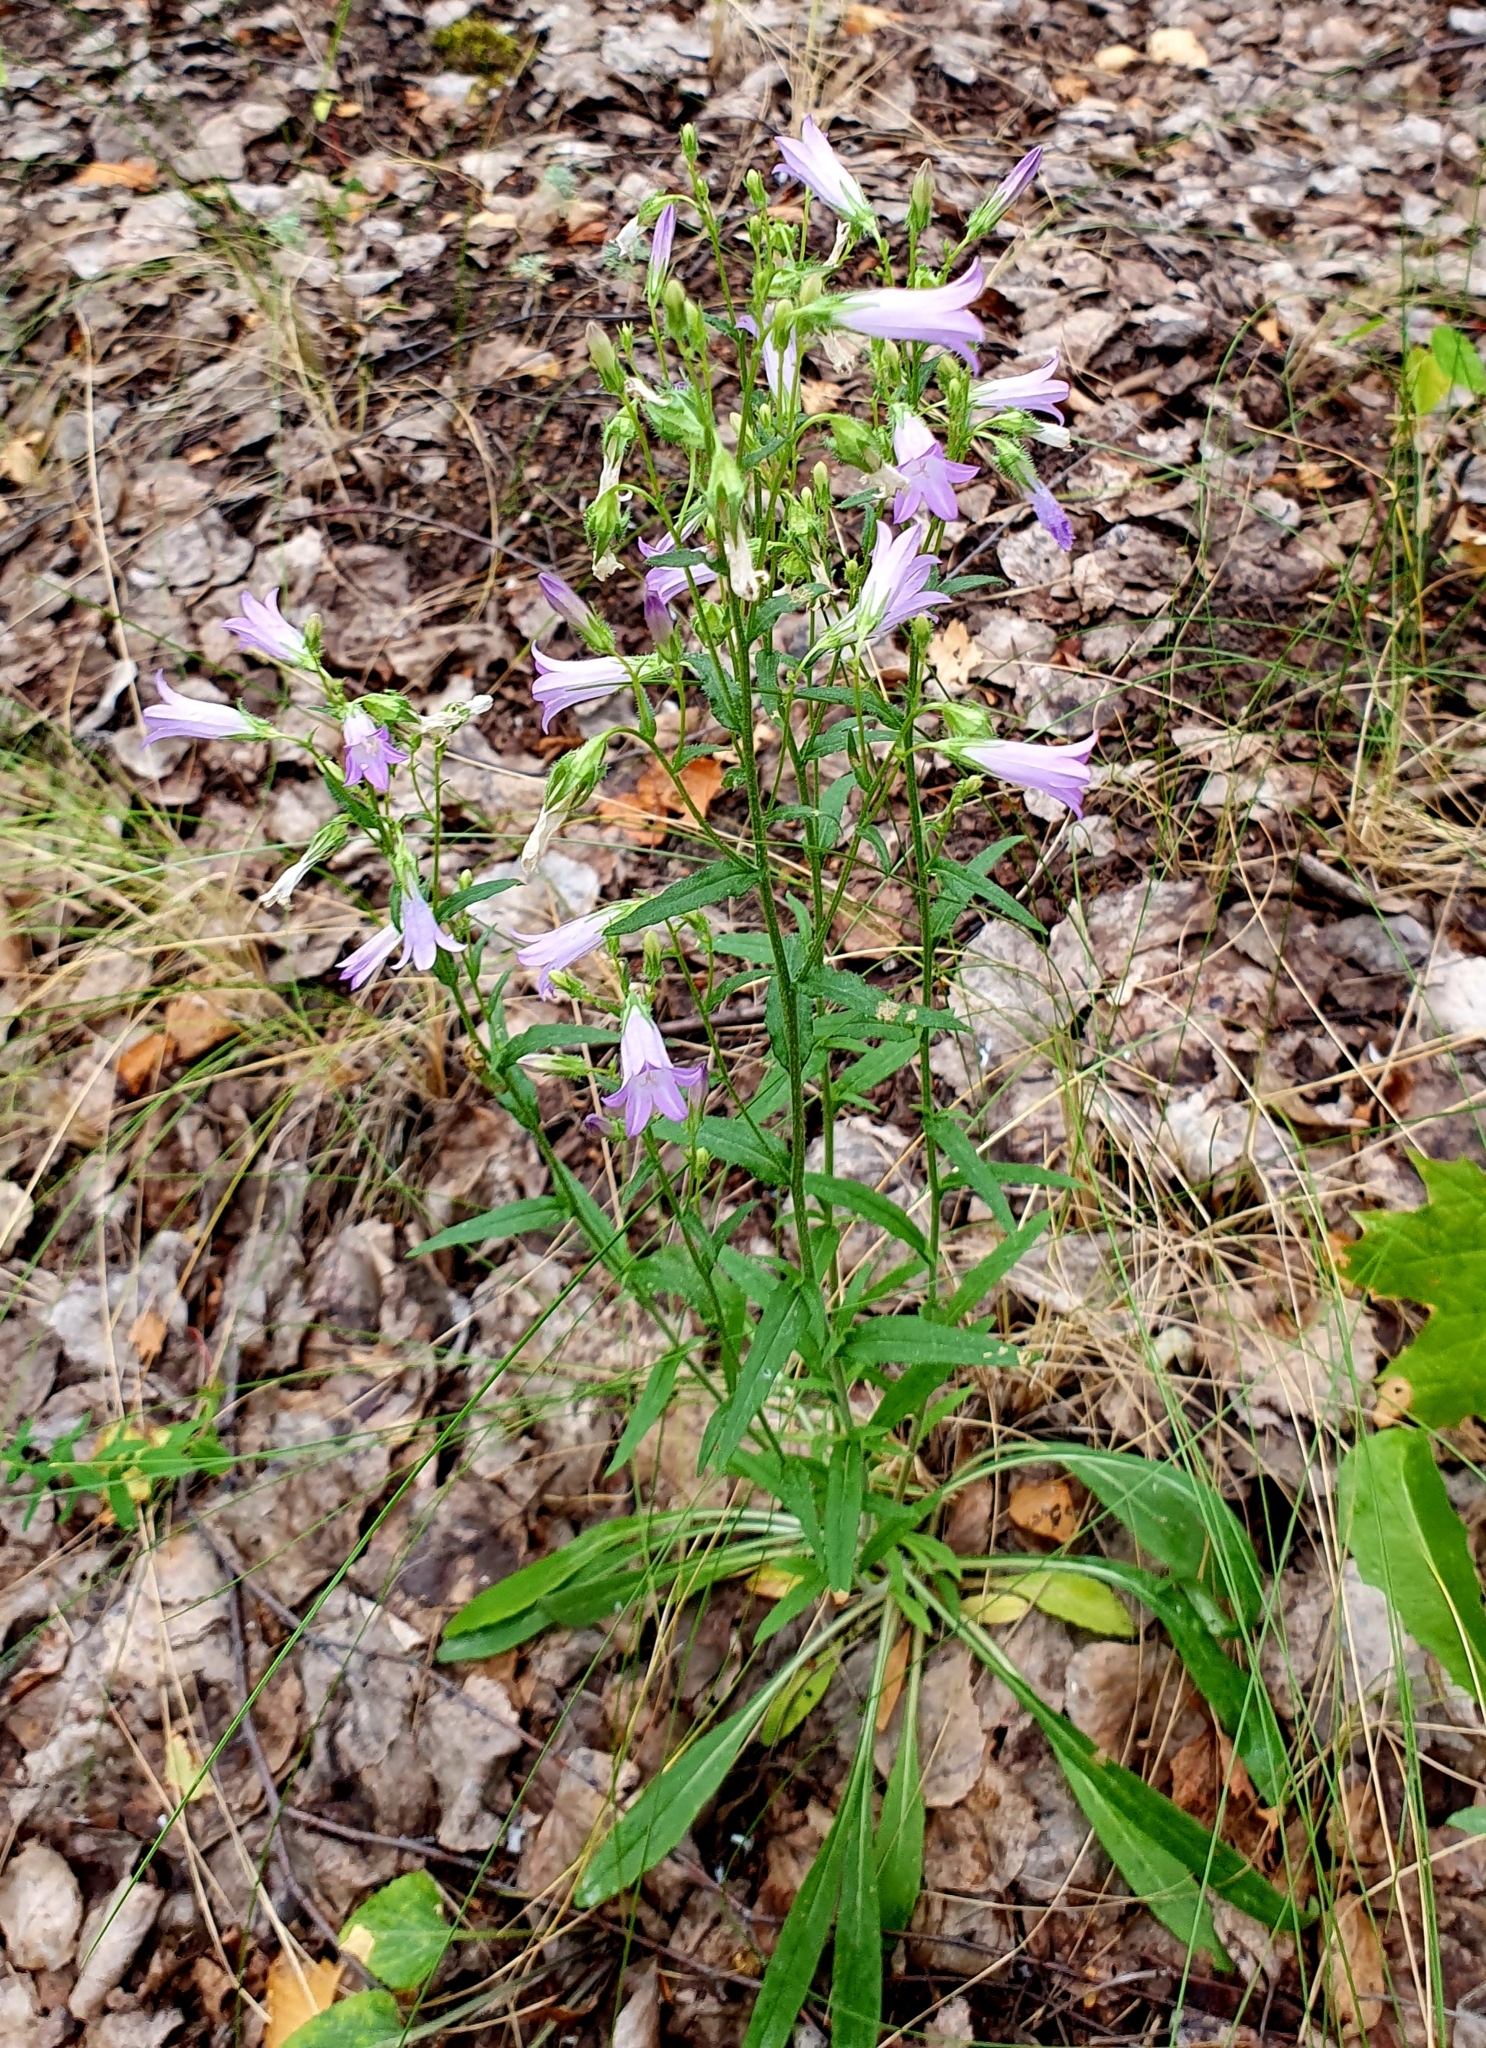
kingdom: Plantae
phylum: Tracheophyta
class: Magnoliopsida
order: Asterales
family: Campanulaceae
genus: Campanula
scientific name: Campanula sibirica
